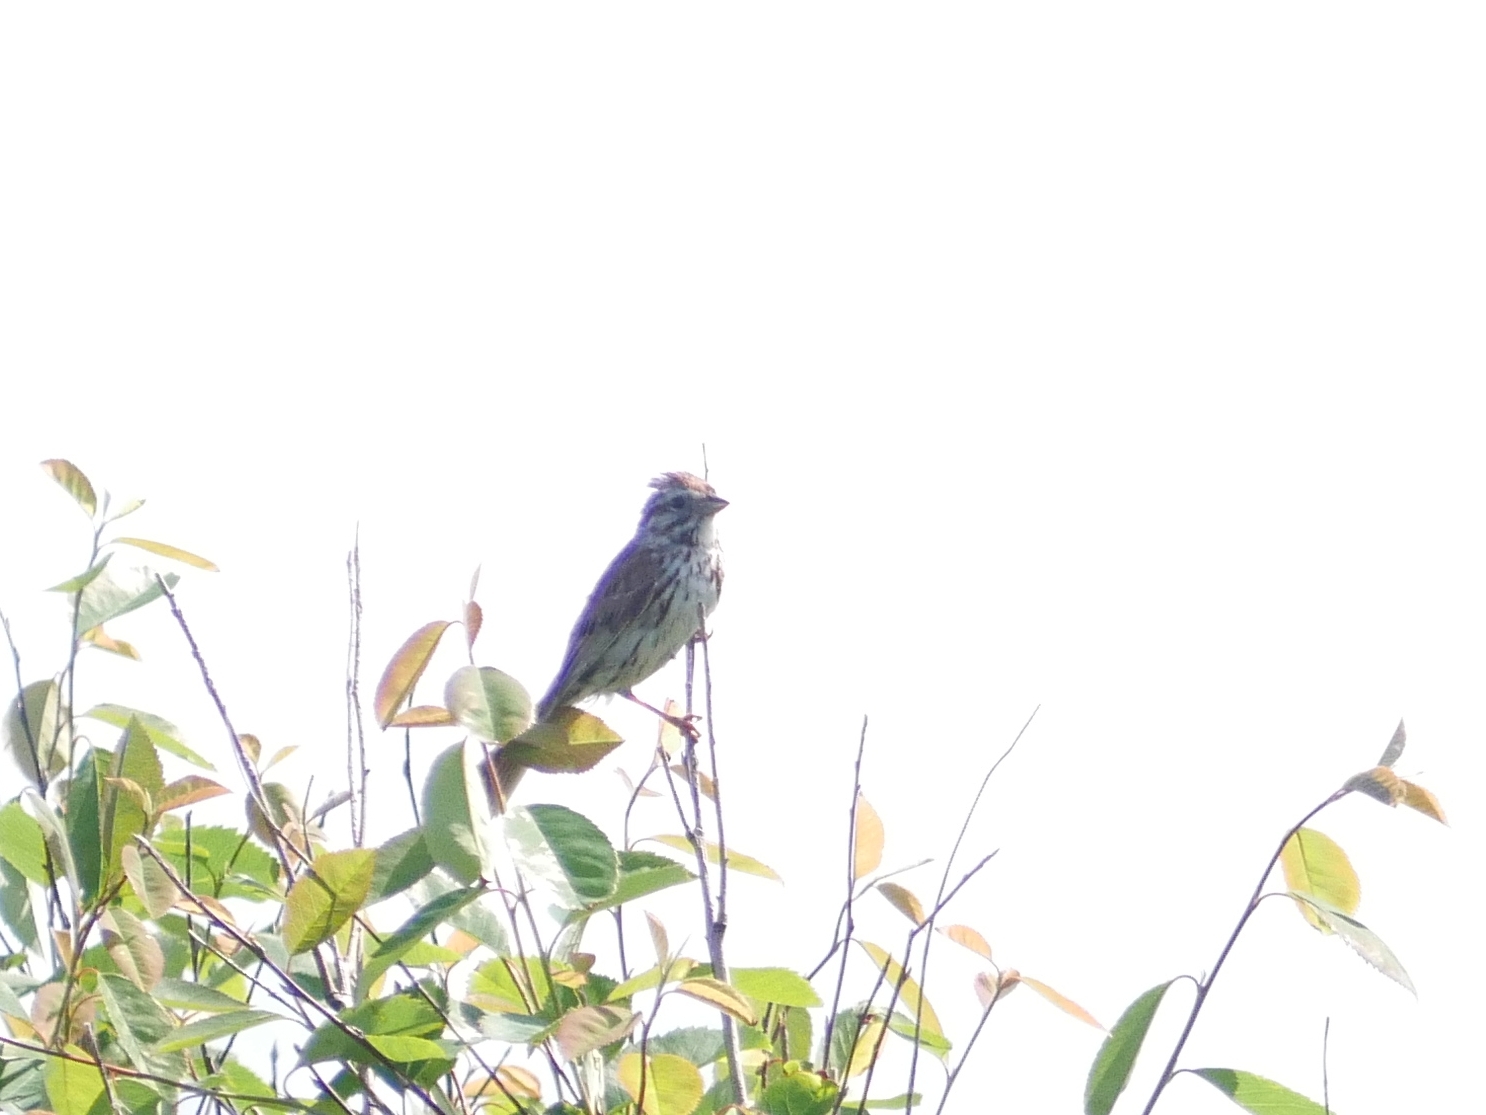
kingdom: Animalia
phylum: Chordata
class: Aves
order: Passeriformes
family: Passerellidae
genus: Melospiza
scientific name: Melospiza melodia
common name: Song sparrow
